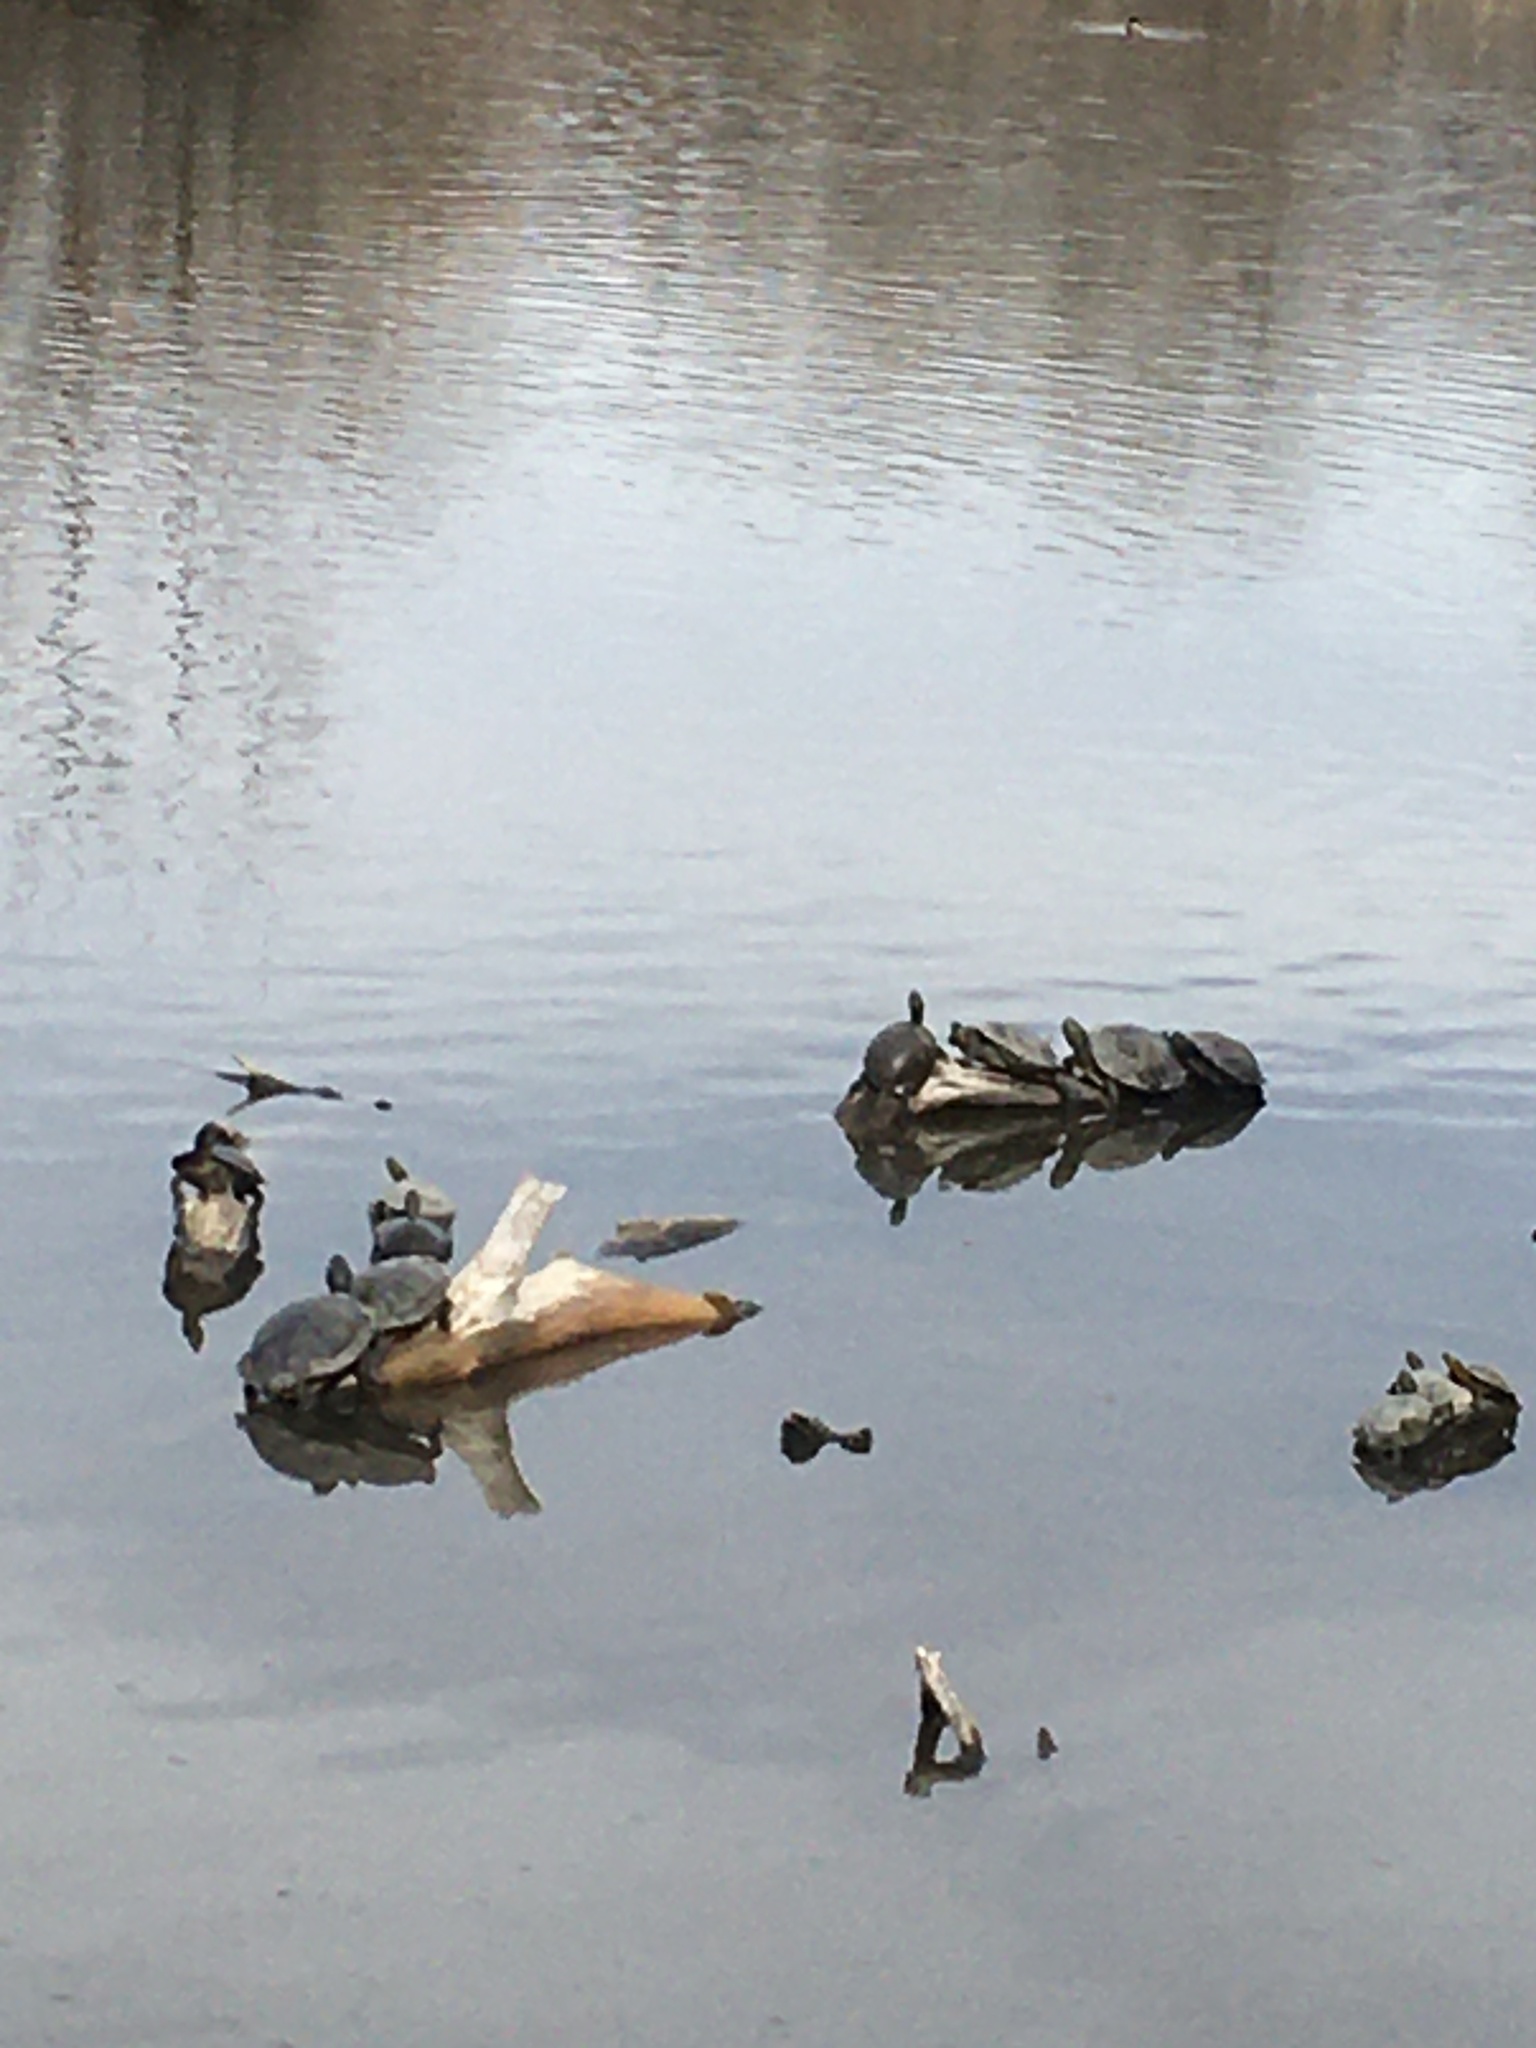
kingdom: Animalia
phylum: Chordata
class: Testudines
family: Emydidae
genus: Trachemys
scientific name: Trachemys scripta
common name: Slider
